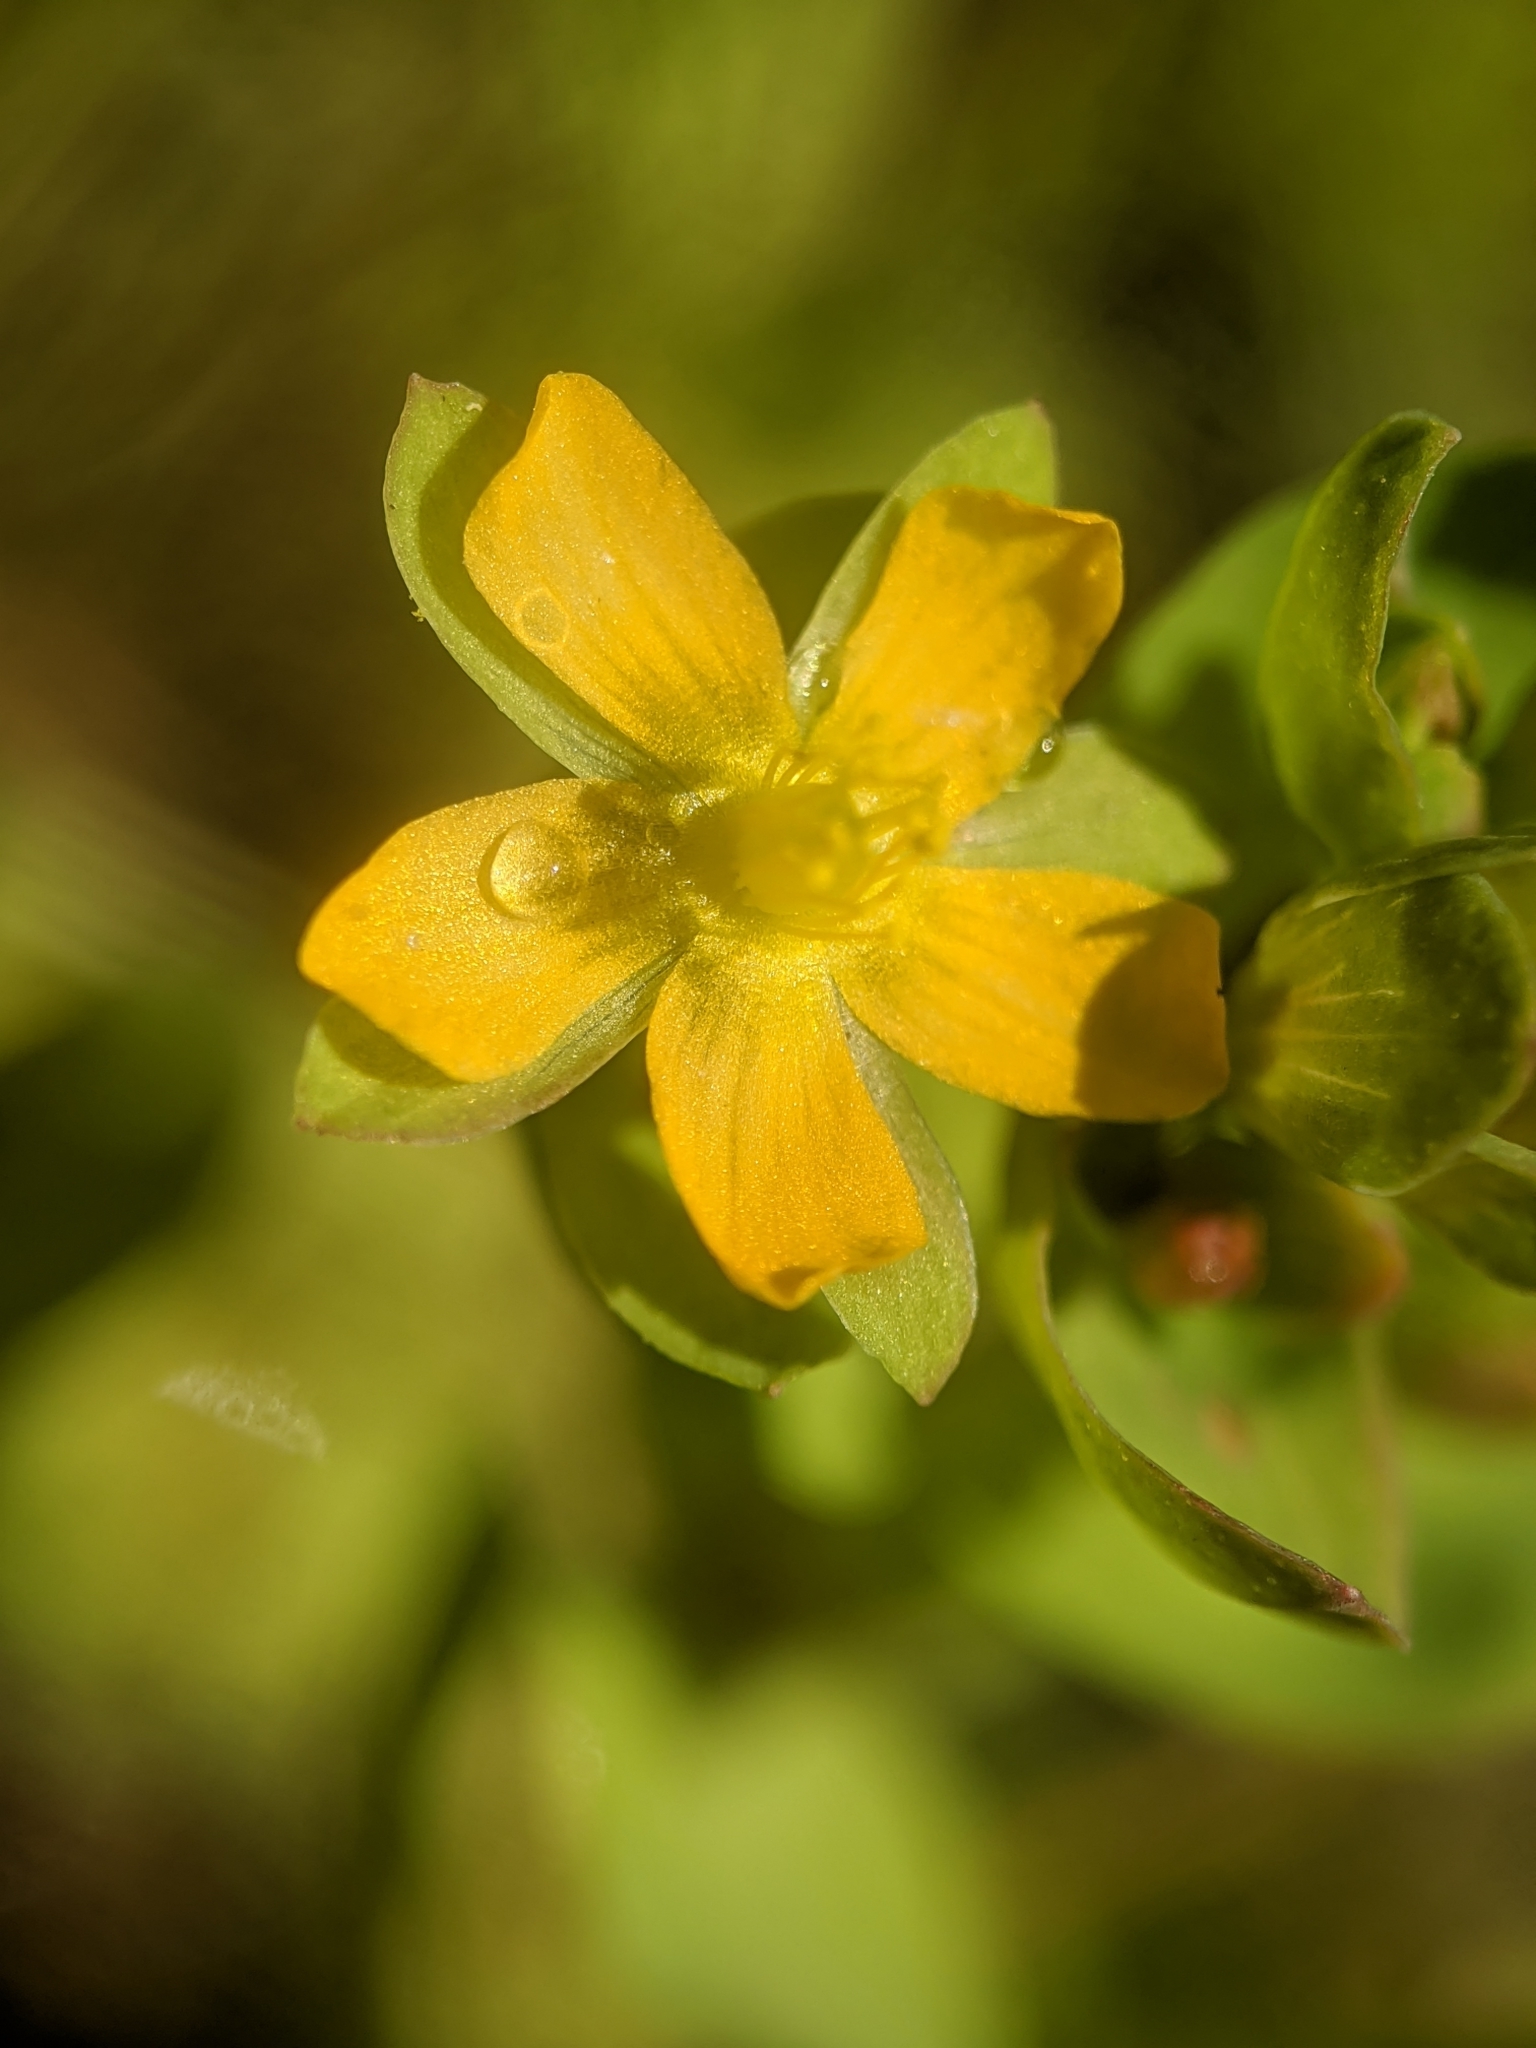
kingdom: Plantae
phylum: Tracheophyta
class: Magnoliopsida
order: Malpighiales
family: Hypericaceae
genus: Hypericum
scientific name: Hypericum anagalloides
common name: Bog st. john's-wort
